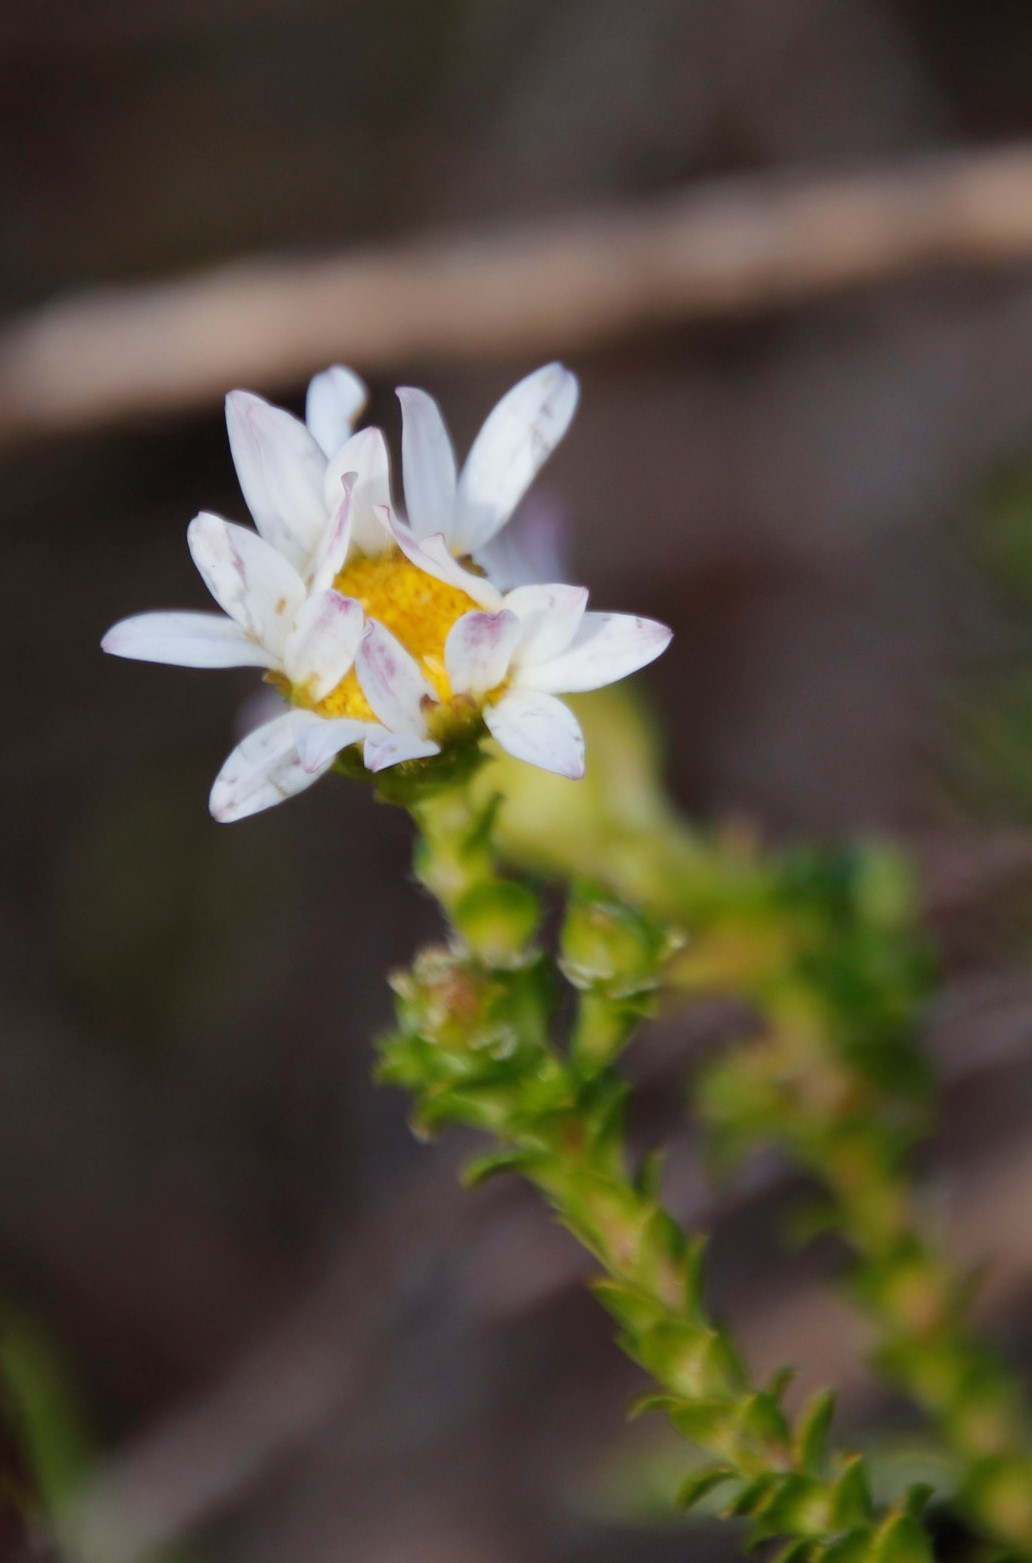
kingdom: Plantae
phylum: Tracheophyta
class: Magnoliopsida
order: Asterales
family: Asteraceae
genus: Polyarrhena
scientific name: Polyarrhena reflexa
